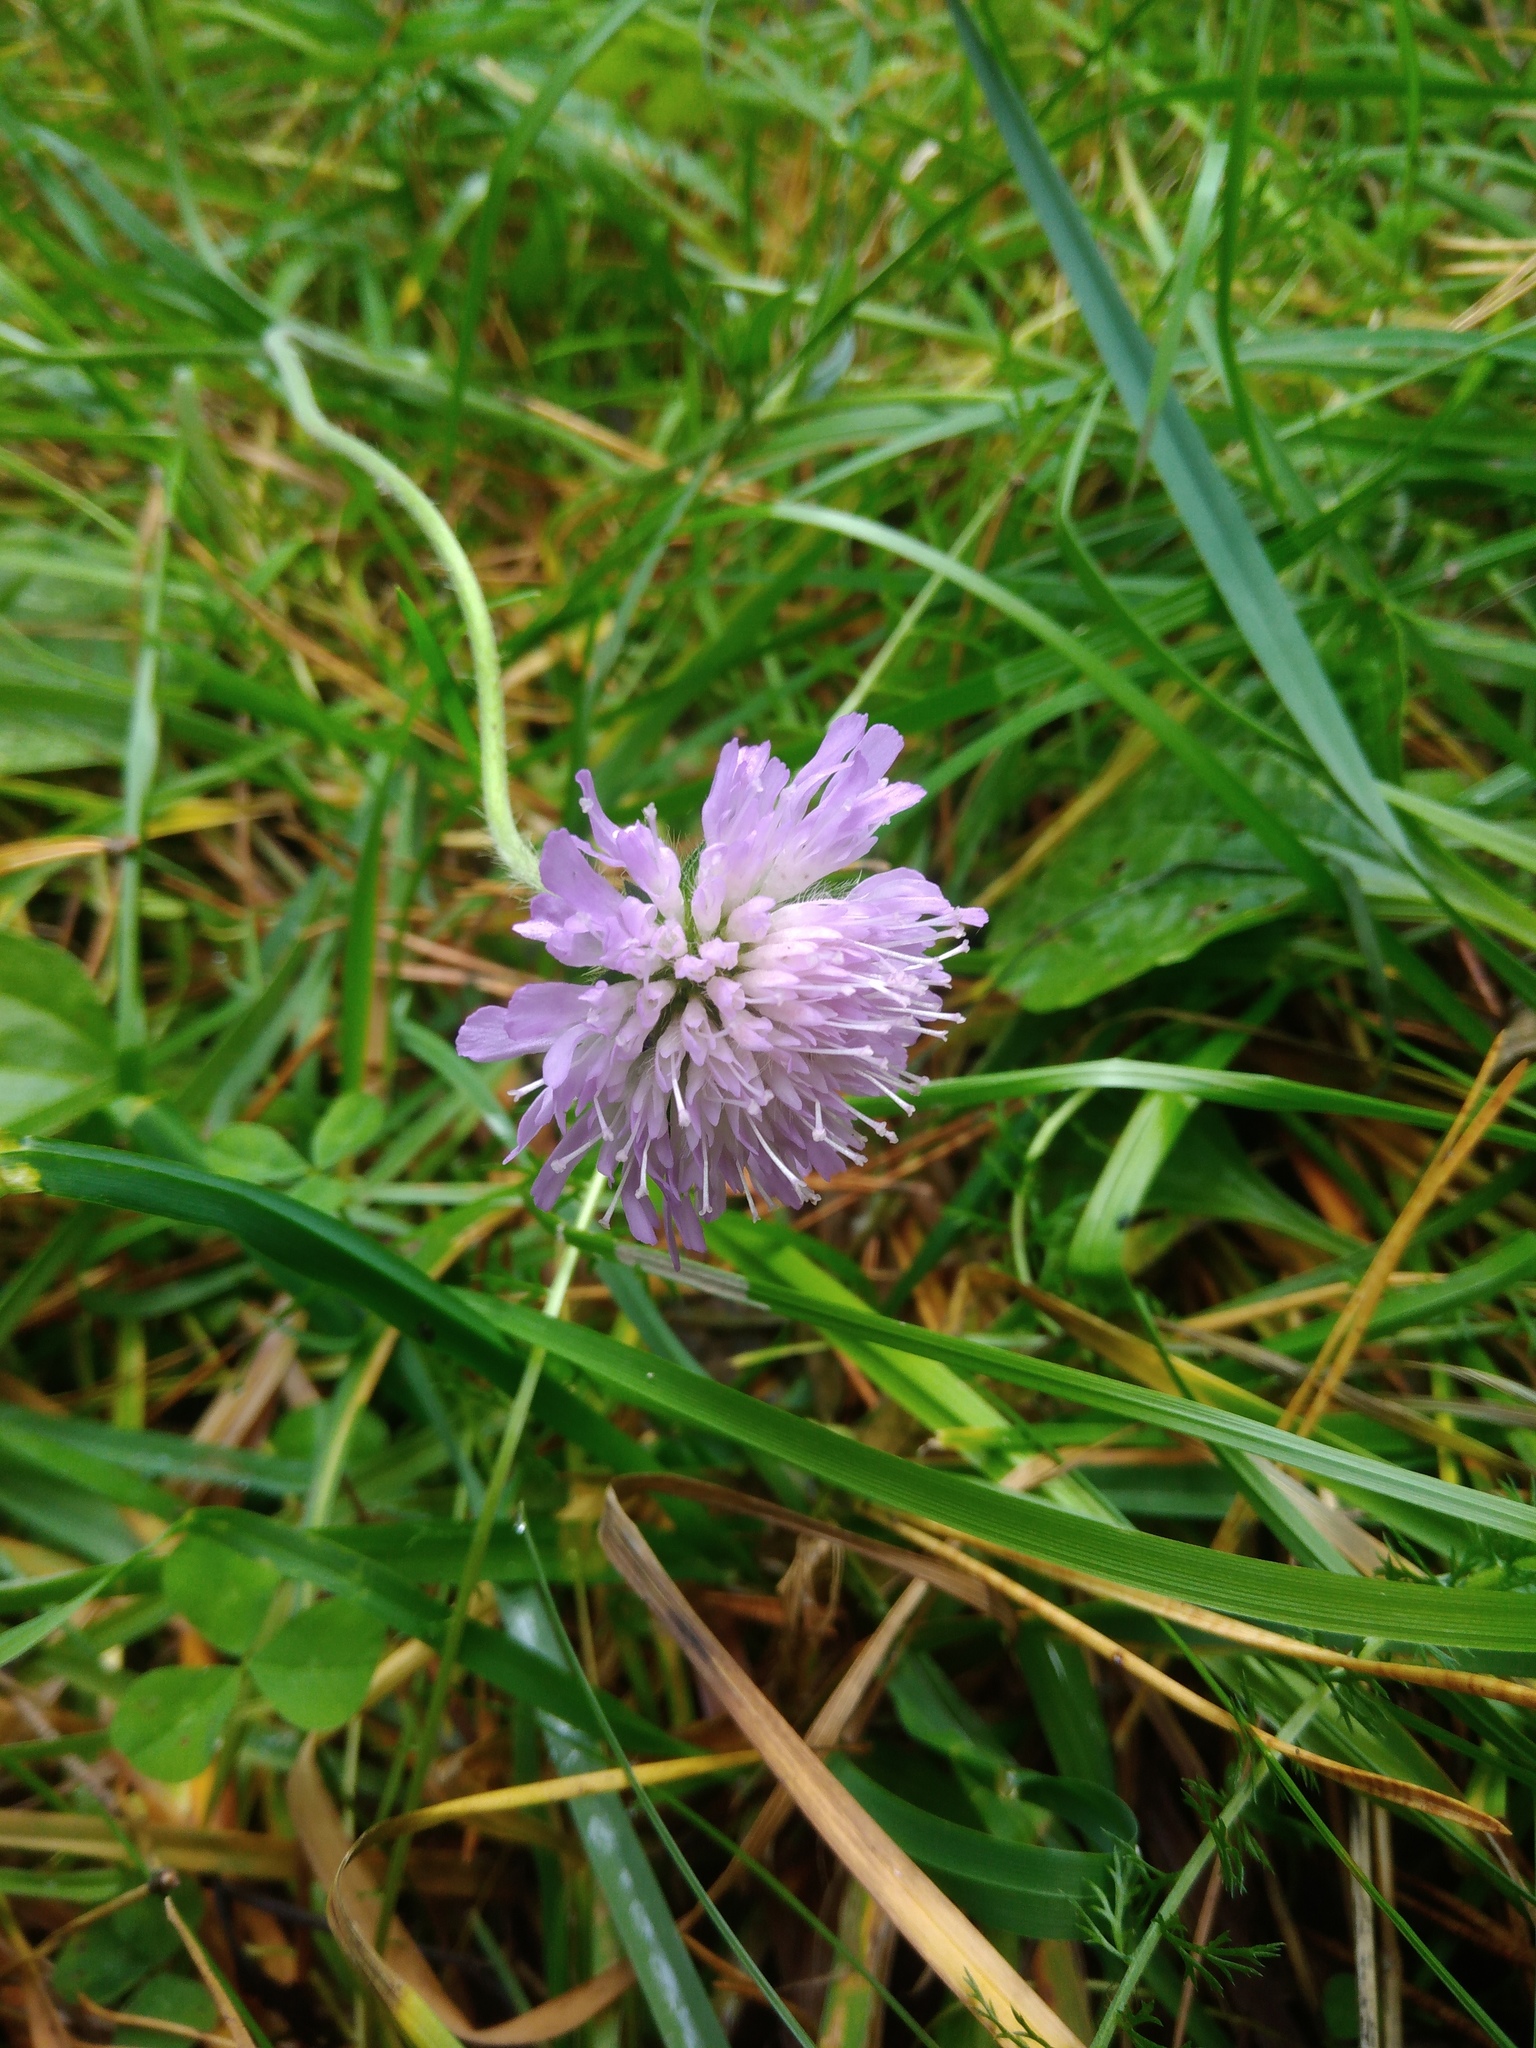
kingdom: Plantae
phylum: Tracheophyta
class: Magnoliopsida
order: Dipsacales
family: Caprifoliaceae
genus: Knautia
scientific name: Knautia arvensis
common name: Field scabiosa
